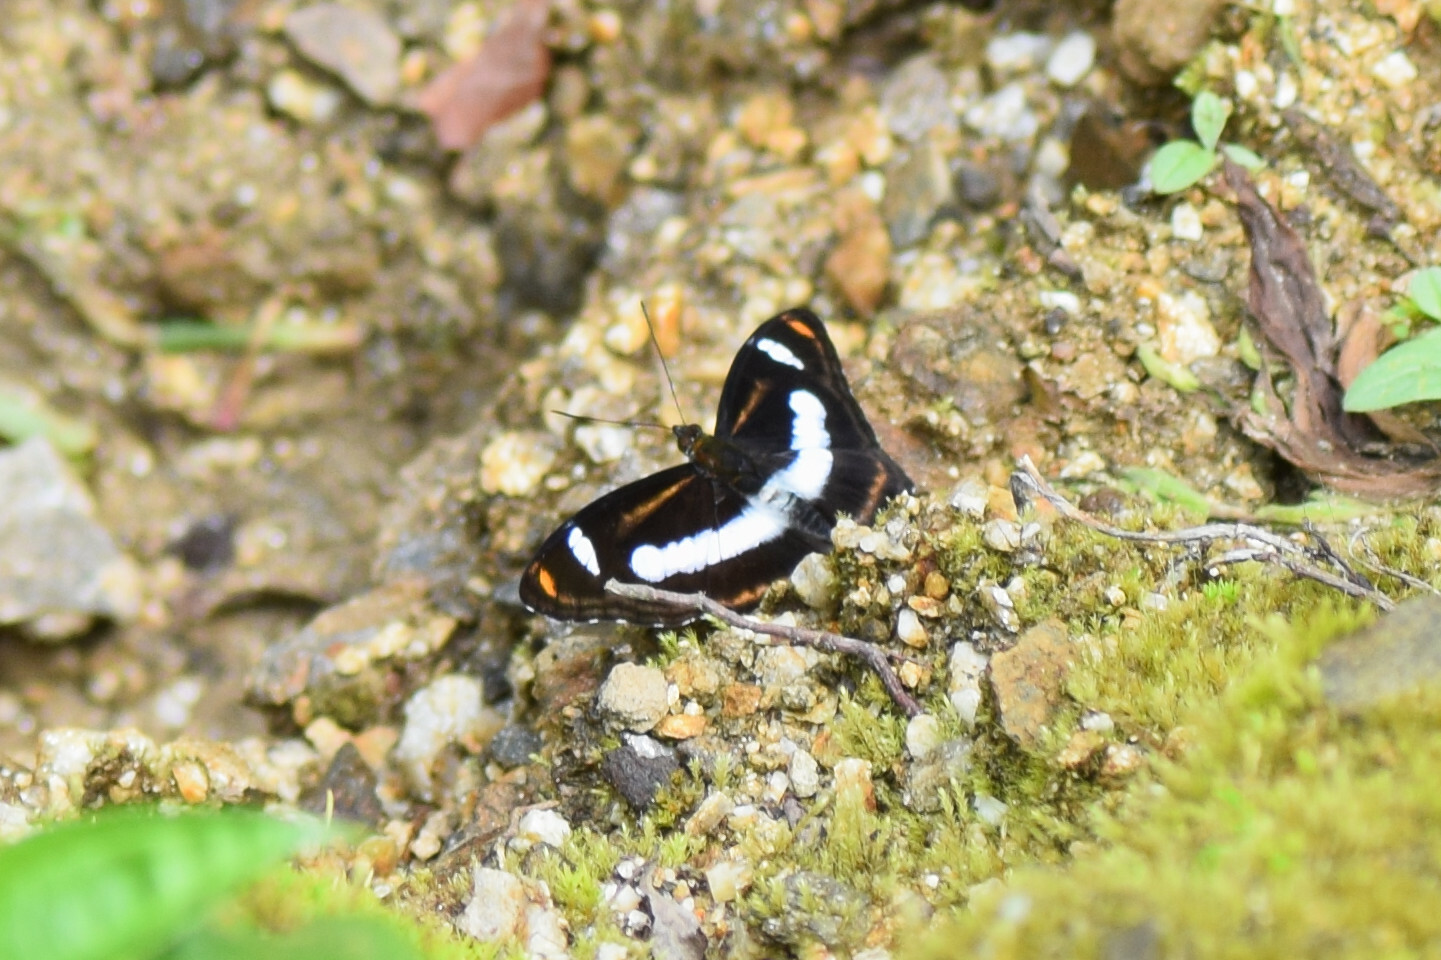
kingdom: Animalia
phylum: Arthropoda
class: Insecta
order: Lepidoptera
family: Nymphalidae
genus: Pantoporia
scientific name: Pantoporia cama
